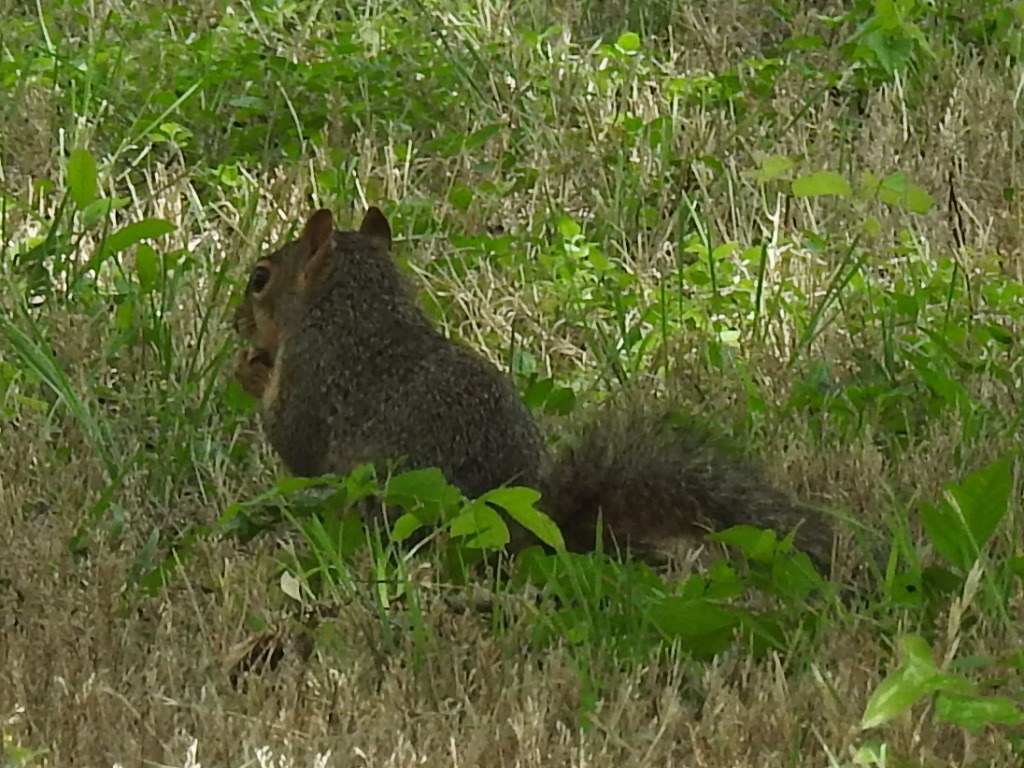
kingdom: Animalia
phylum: Chordata
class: Mammalia
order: Rodentia
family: Sciuridae
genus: Sciurus
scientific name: Sciurus niger
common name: Fox squirrel
